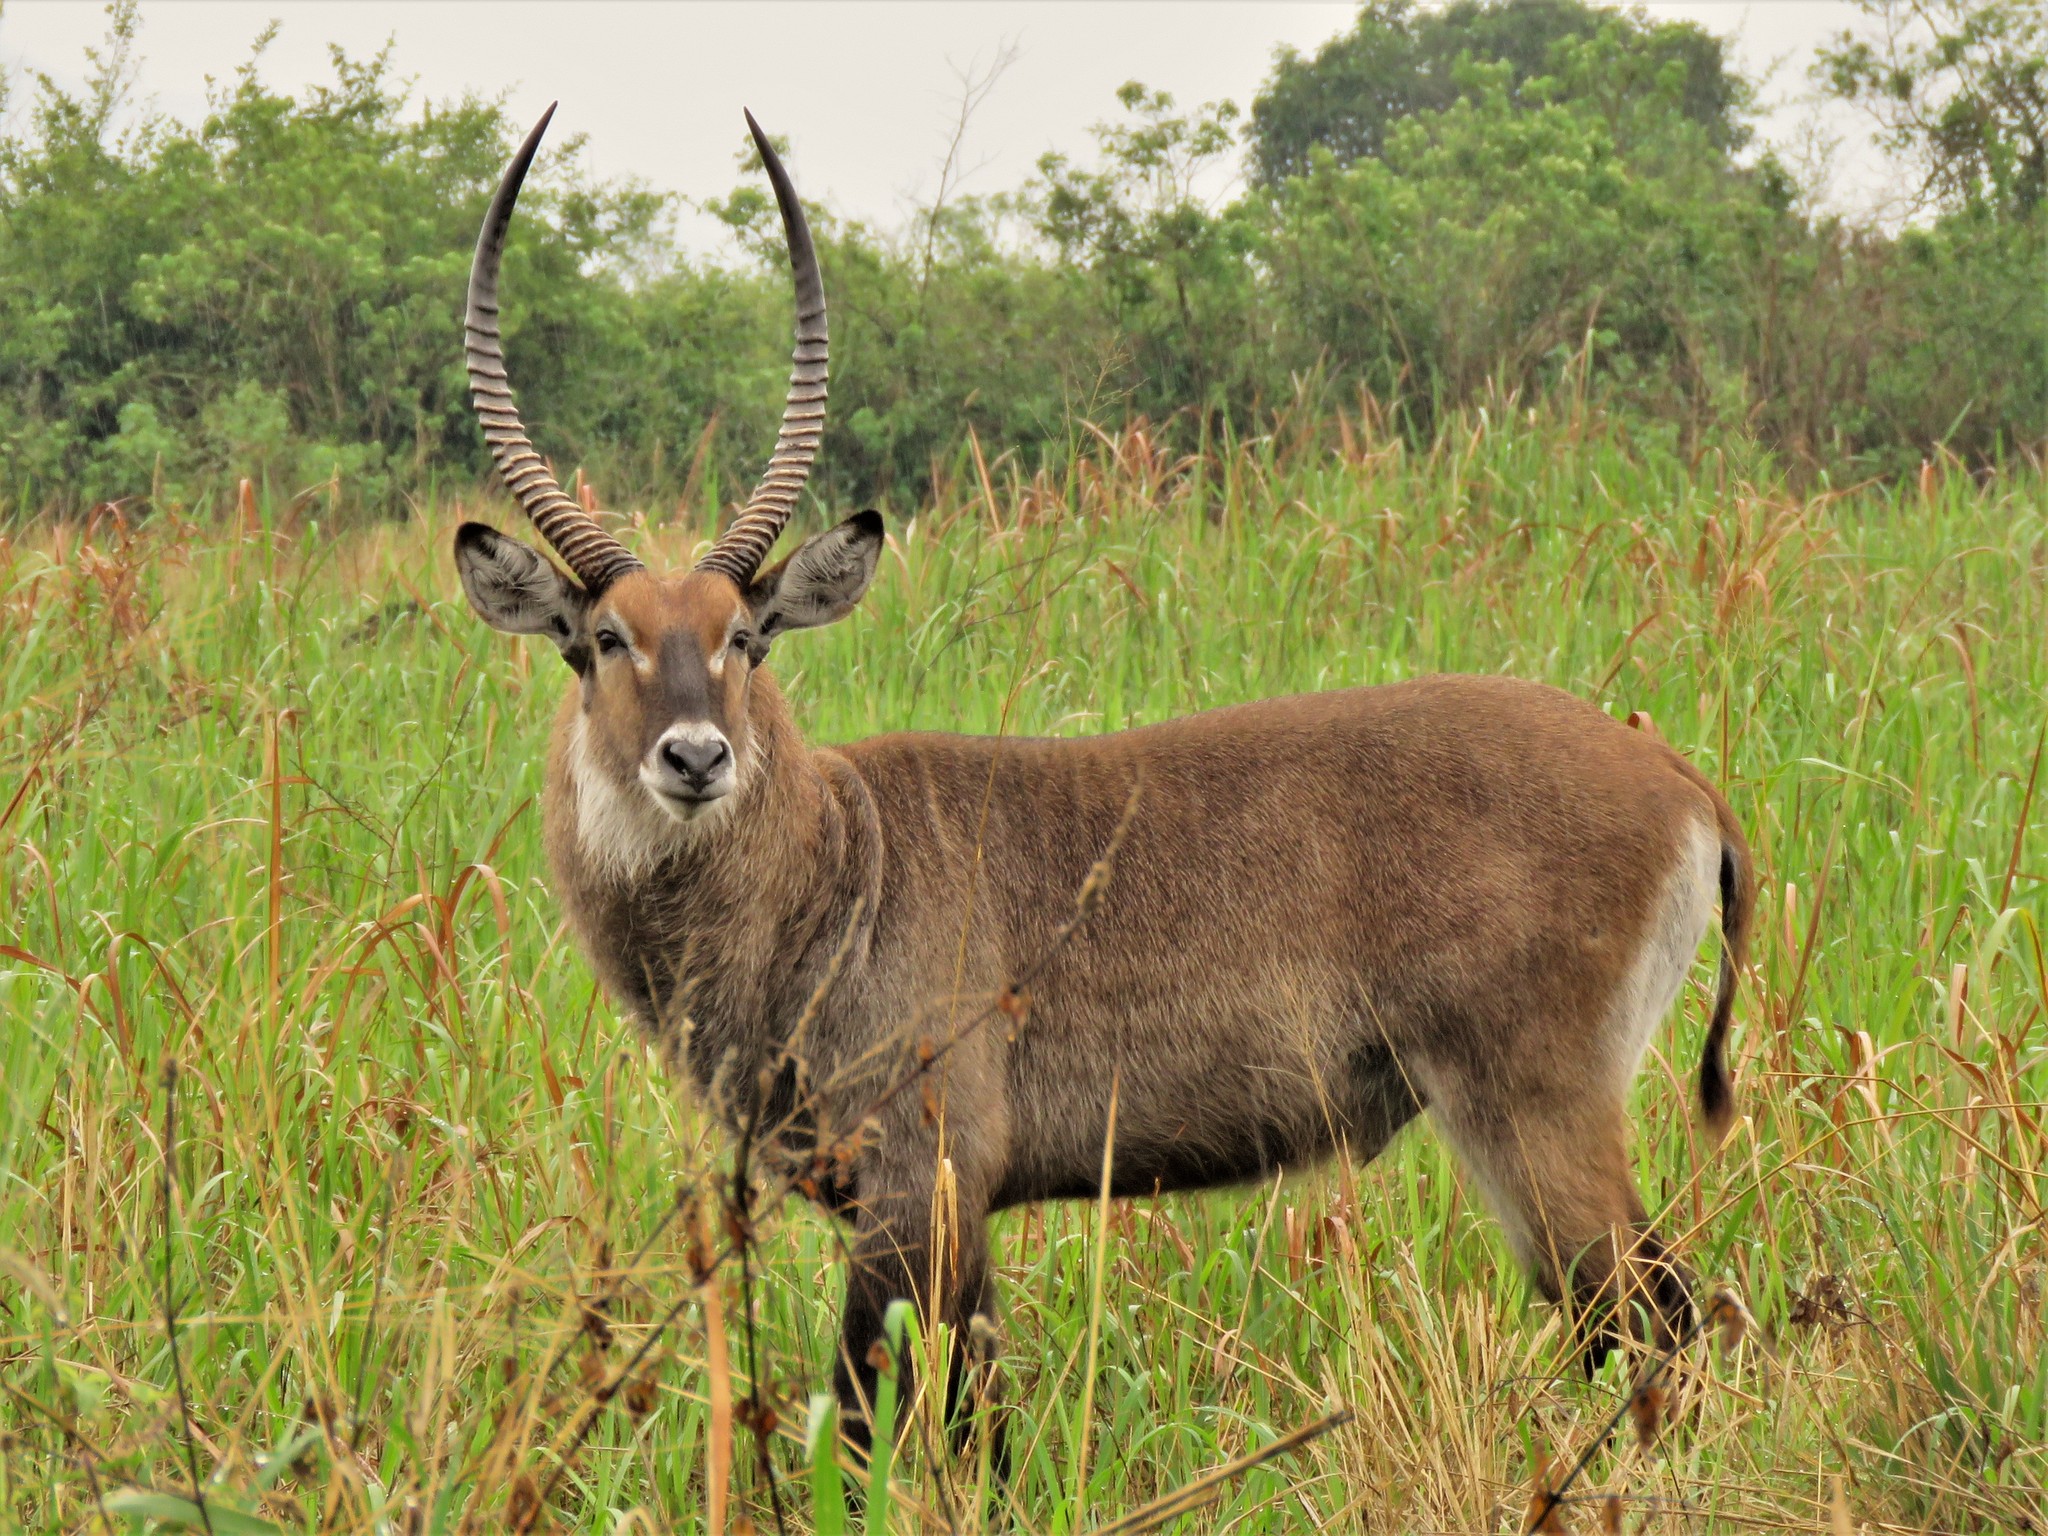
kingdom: Animalia
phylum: Chordata
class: Mammalia
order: Artiodactyla
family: Bovidae
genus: Kobus
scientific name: Kobus ellipsiprymnus
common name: Waterbuck
